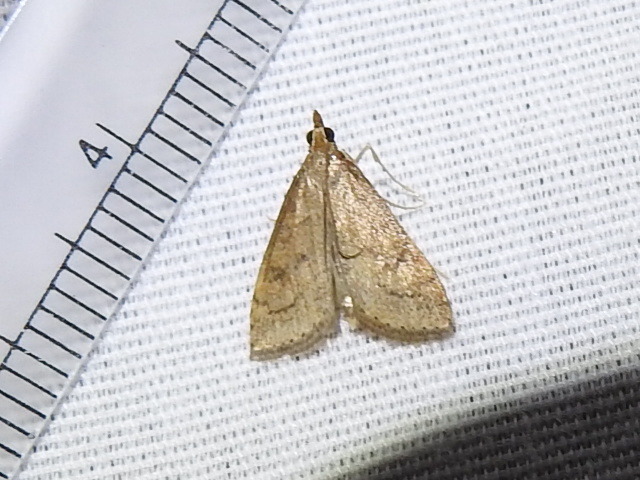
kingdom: Animalia
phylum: Arthropoda
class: Insecta
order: Lepidoptera
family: Crambidae
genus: Udea
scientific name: Udea rubigalis
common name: Celery leaftier moth
